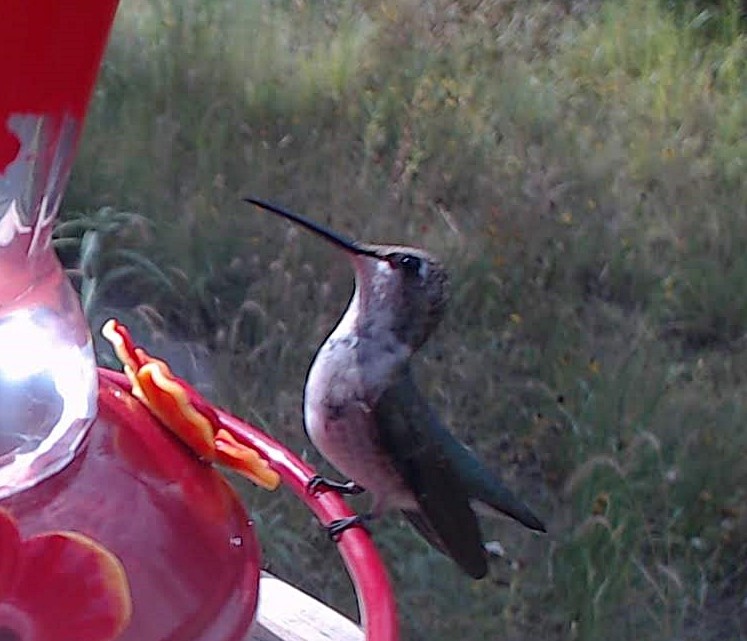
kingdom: Animalia
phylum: Chordata
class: Aves
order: Apodiformes
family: Trochilidae
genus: Archilochus
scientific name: Archilochus alexandri
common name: Black-chinned hummingbird
